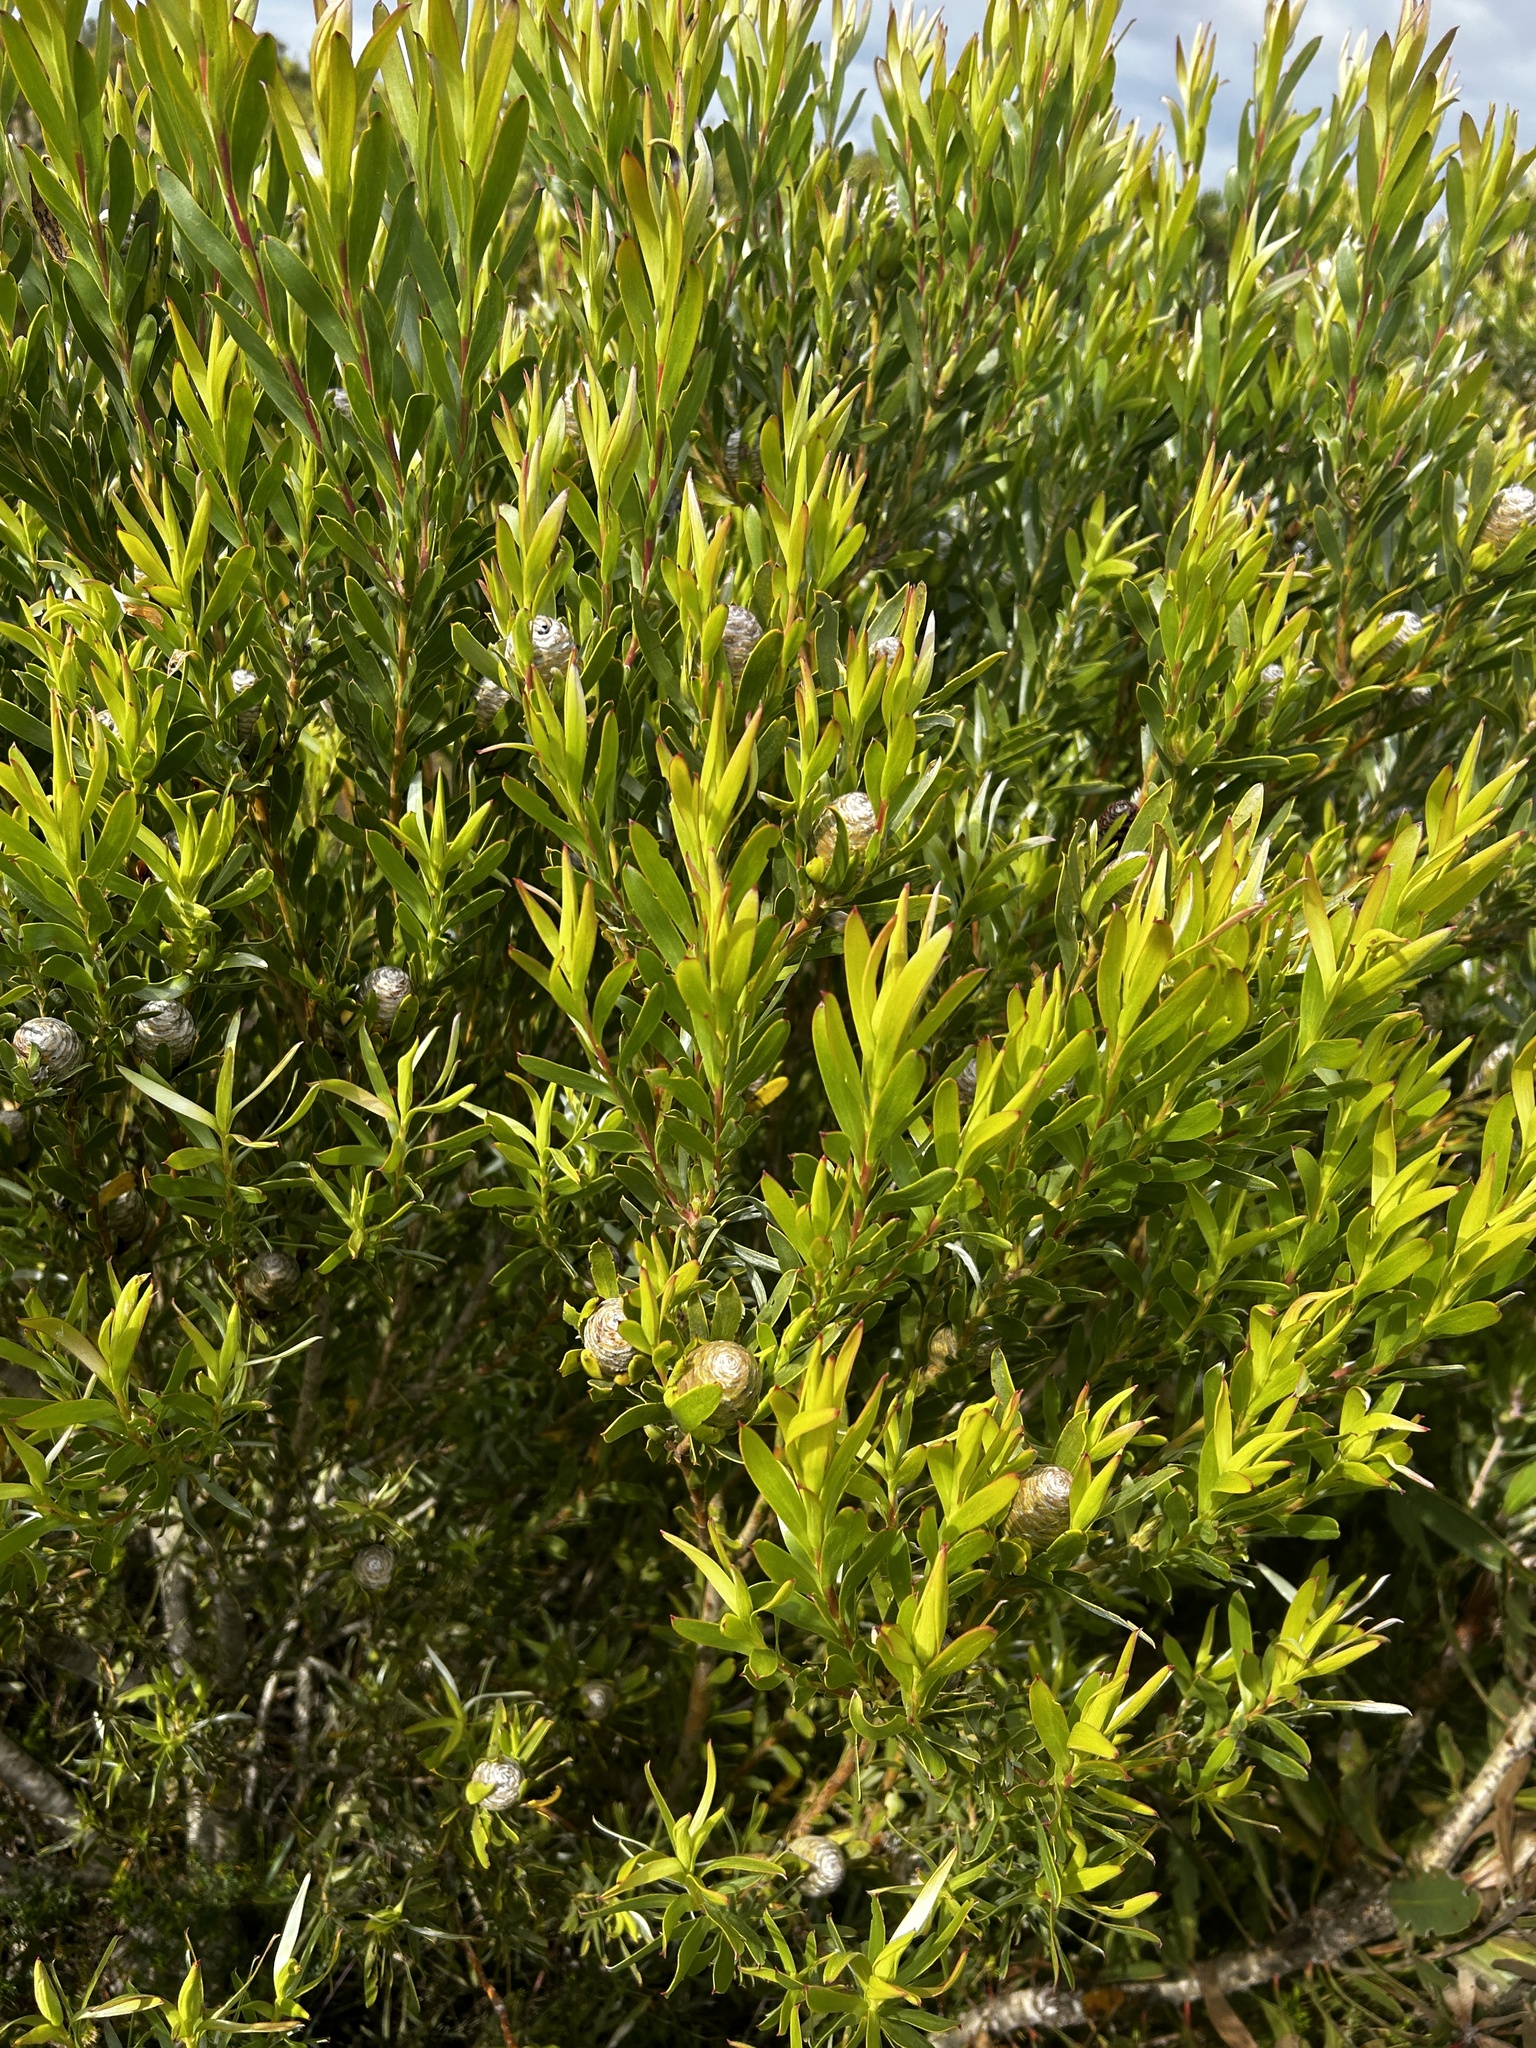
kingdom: Plantae
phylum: Tracheophyta
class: Magnoliopsida
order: Proteales
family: Proteaceae
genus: Leucadendron
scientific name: Leucadendron meridianum
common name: Limestone conebush
